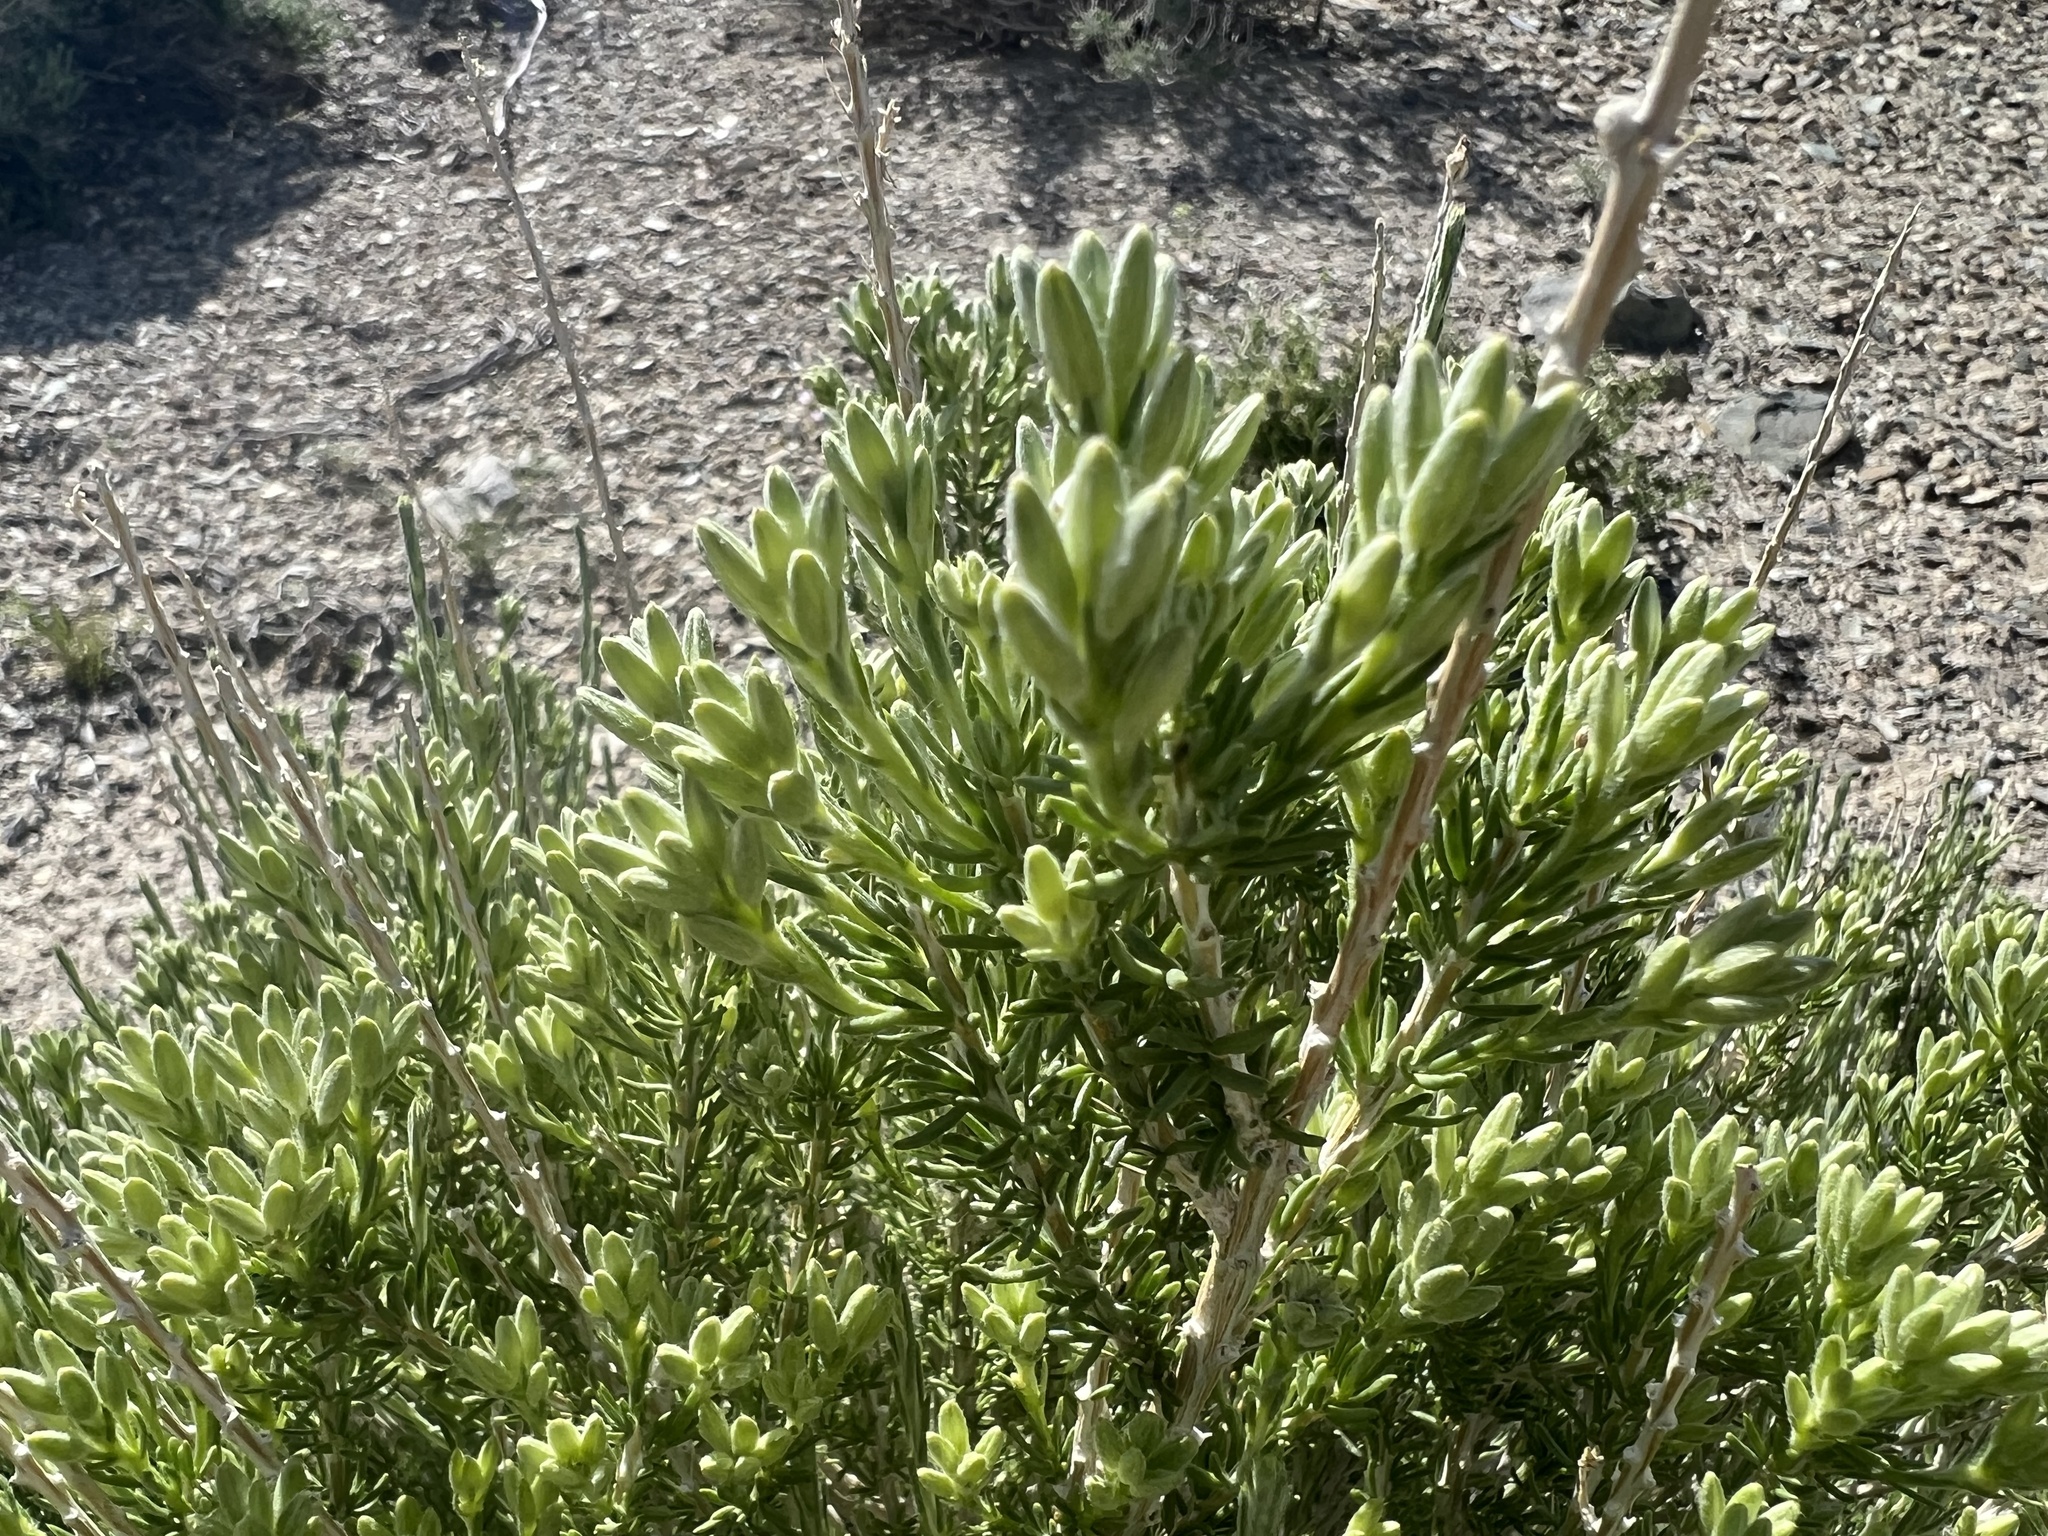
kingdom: Plantae
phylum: Tracheophyta
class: Magnoliopsida
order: Asterales
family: Asteraceae
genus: Tetradymia
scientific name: Tetradymia glabrata
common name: Smooth tetradymia
